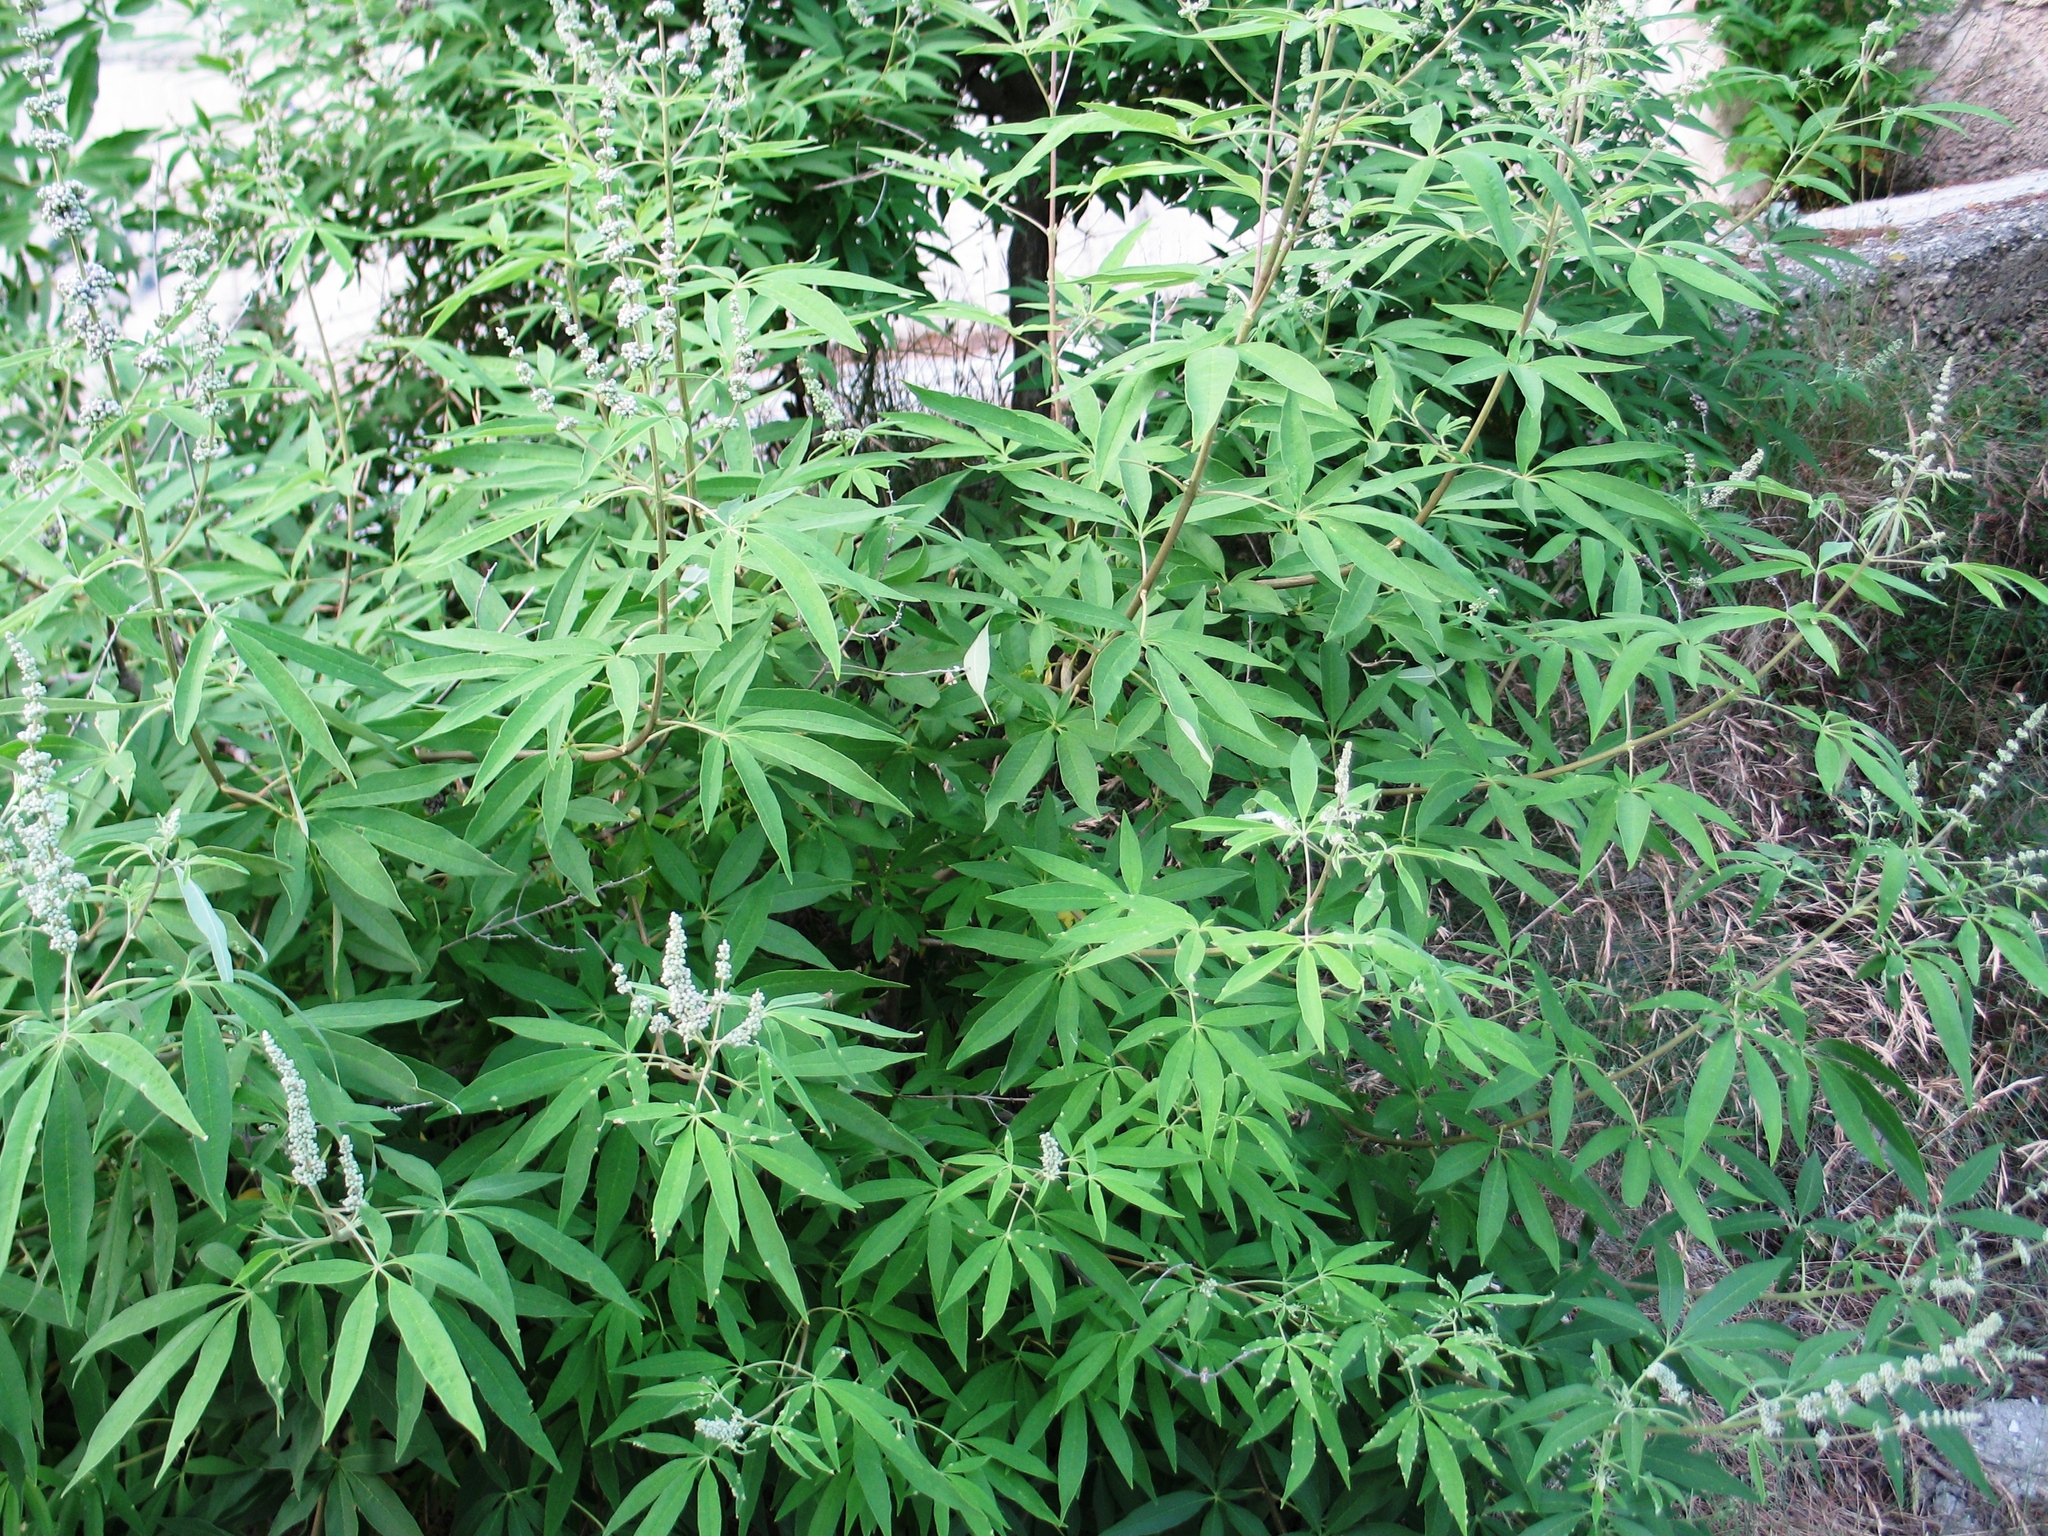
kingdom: Plantae
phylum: Tracheophyta
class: Magnoliopsida
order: Lamiales
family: Lamiaceae
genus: Vitex
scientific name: Vitex agnus-castus
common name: Chasteberry
